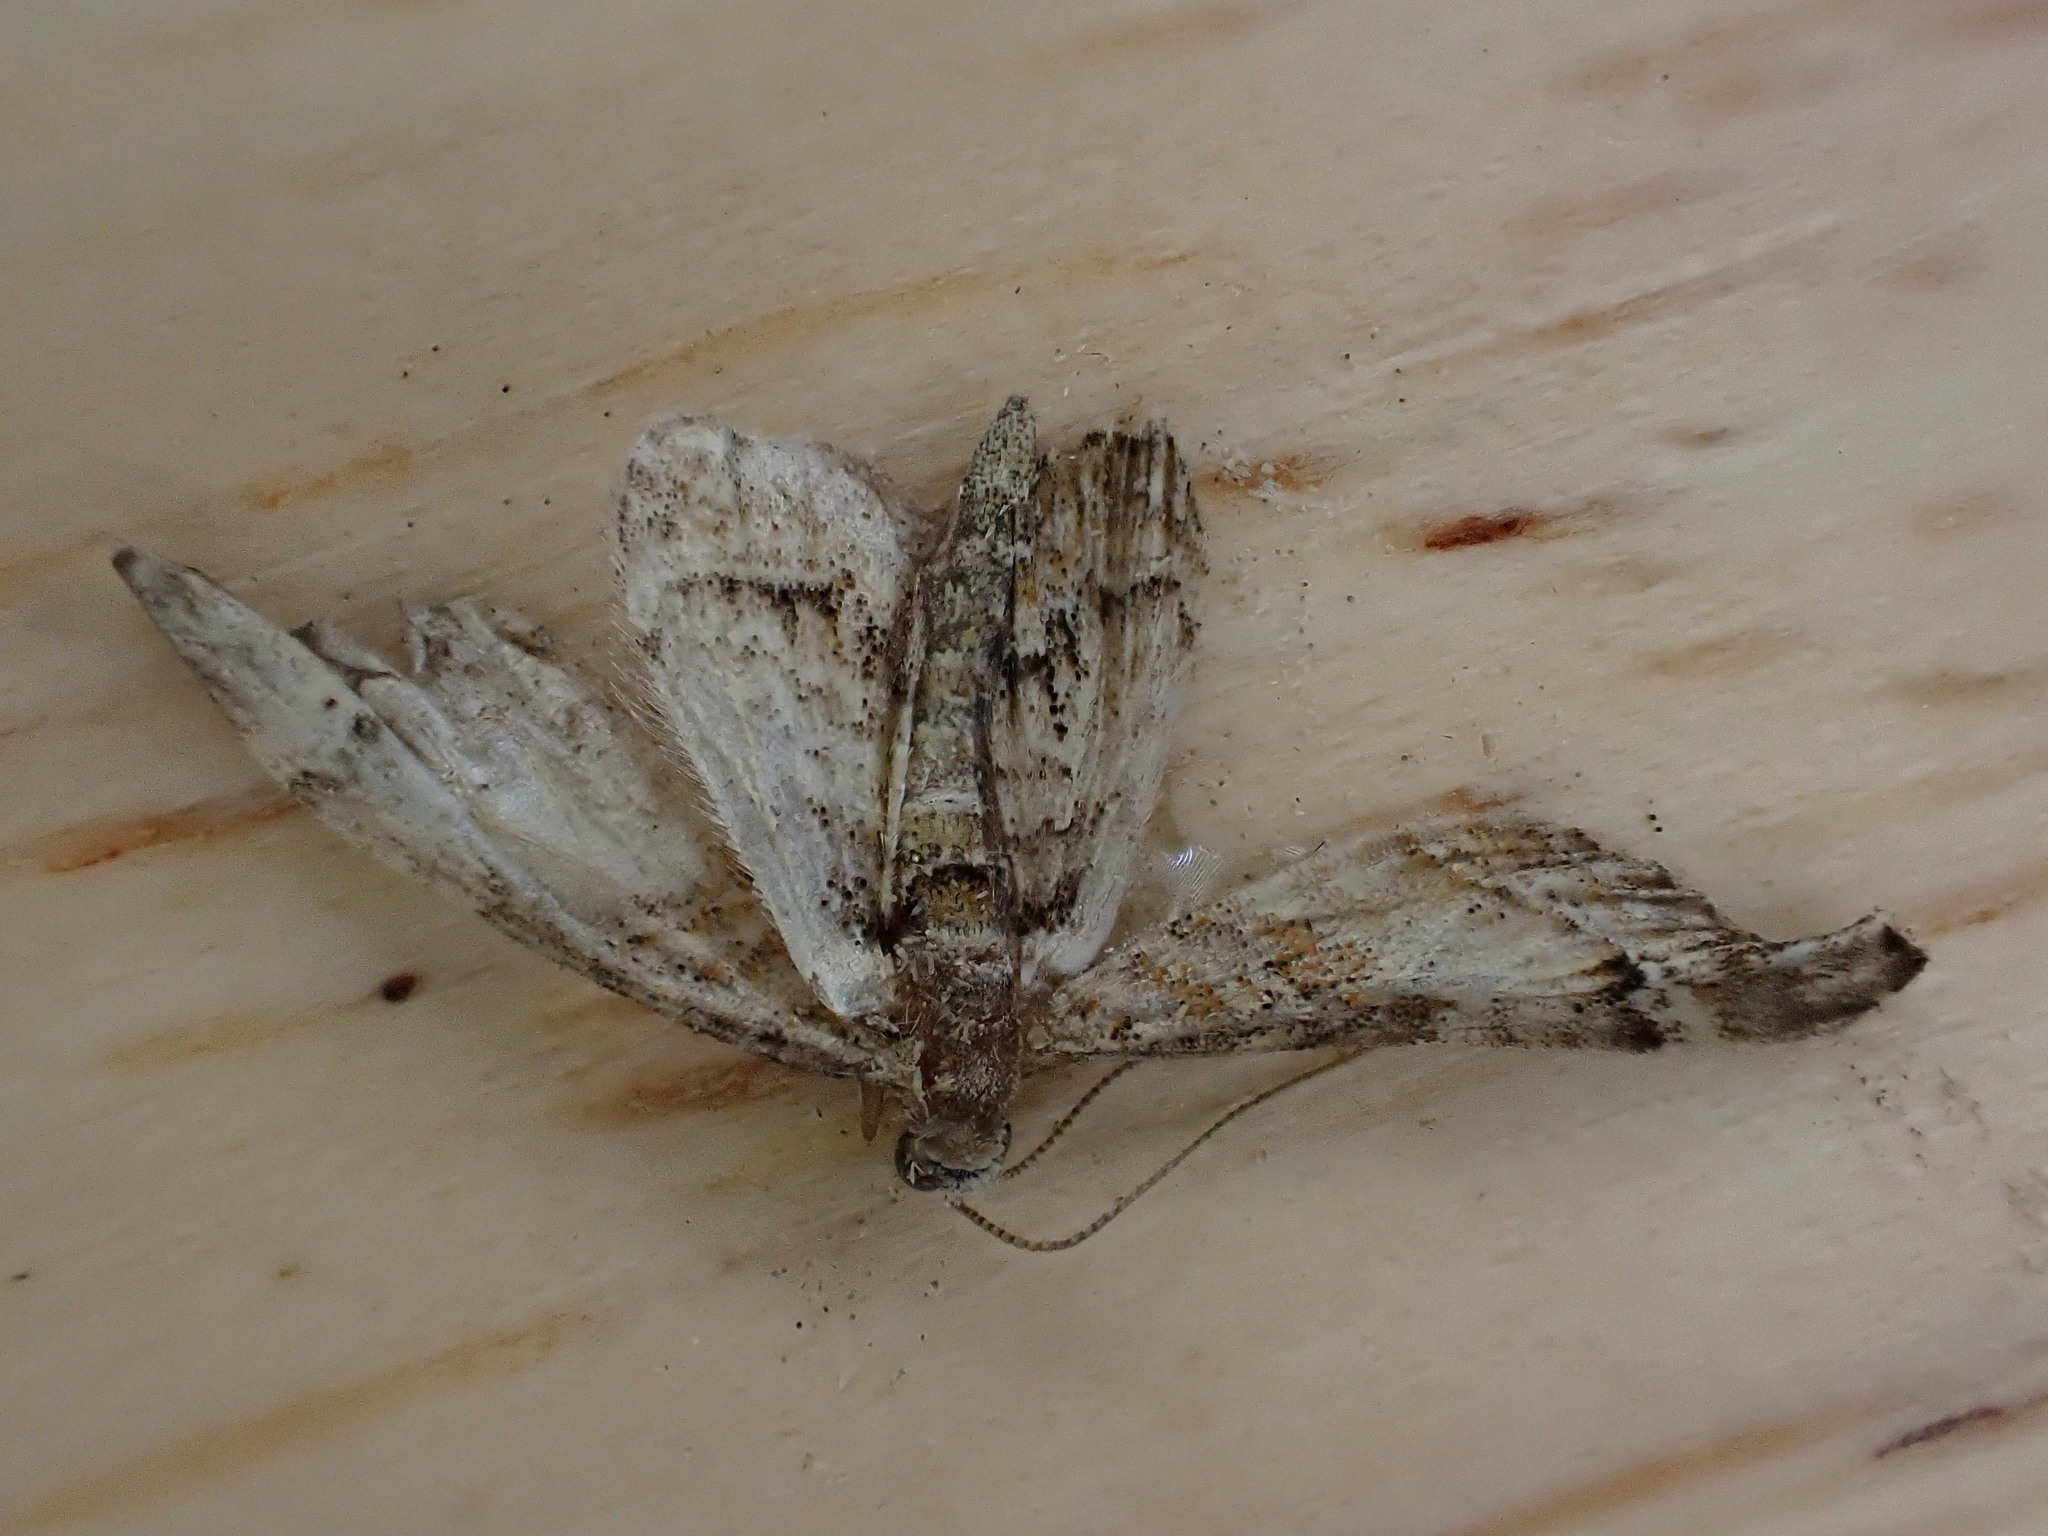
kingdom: Animalia
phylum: Arthropoda
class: Insecta
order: Lepidoptera
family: Geometridae
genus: Gymnoscelis
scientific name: Gymnoscelis rufifasciata
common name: Double-striped pug
